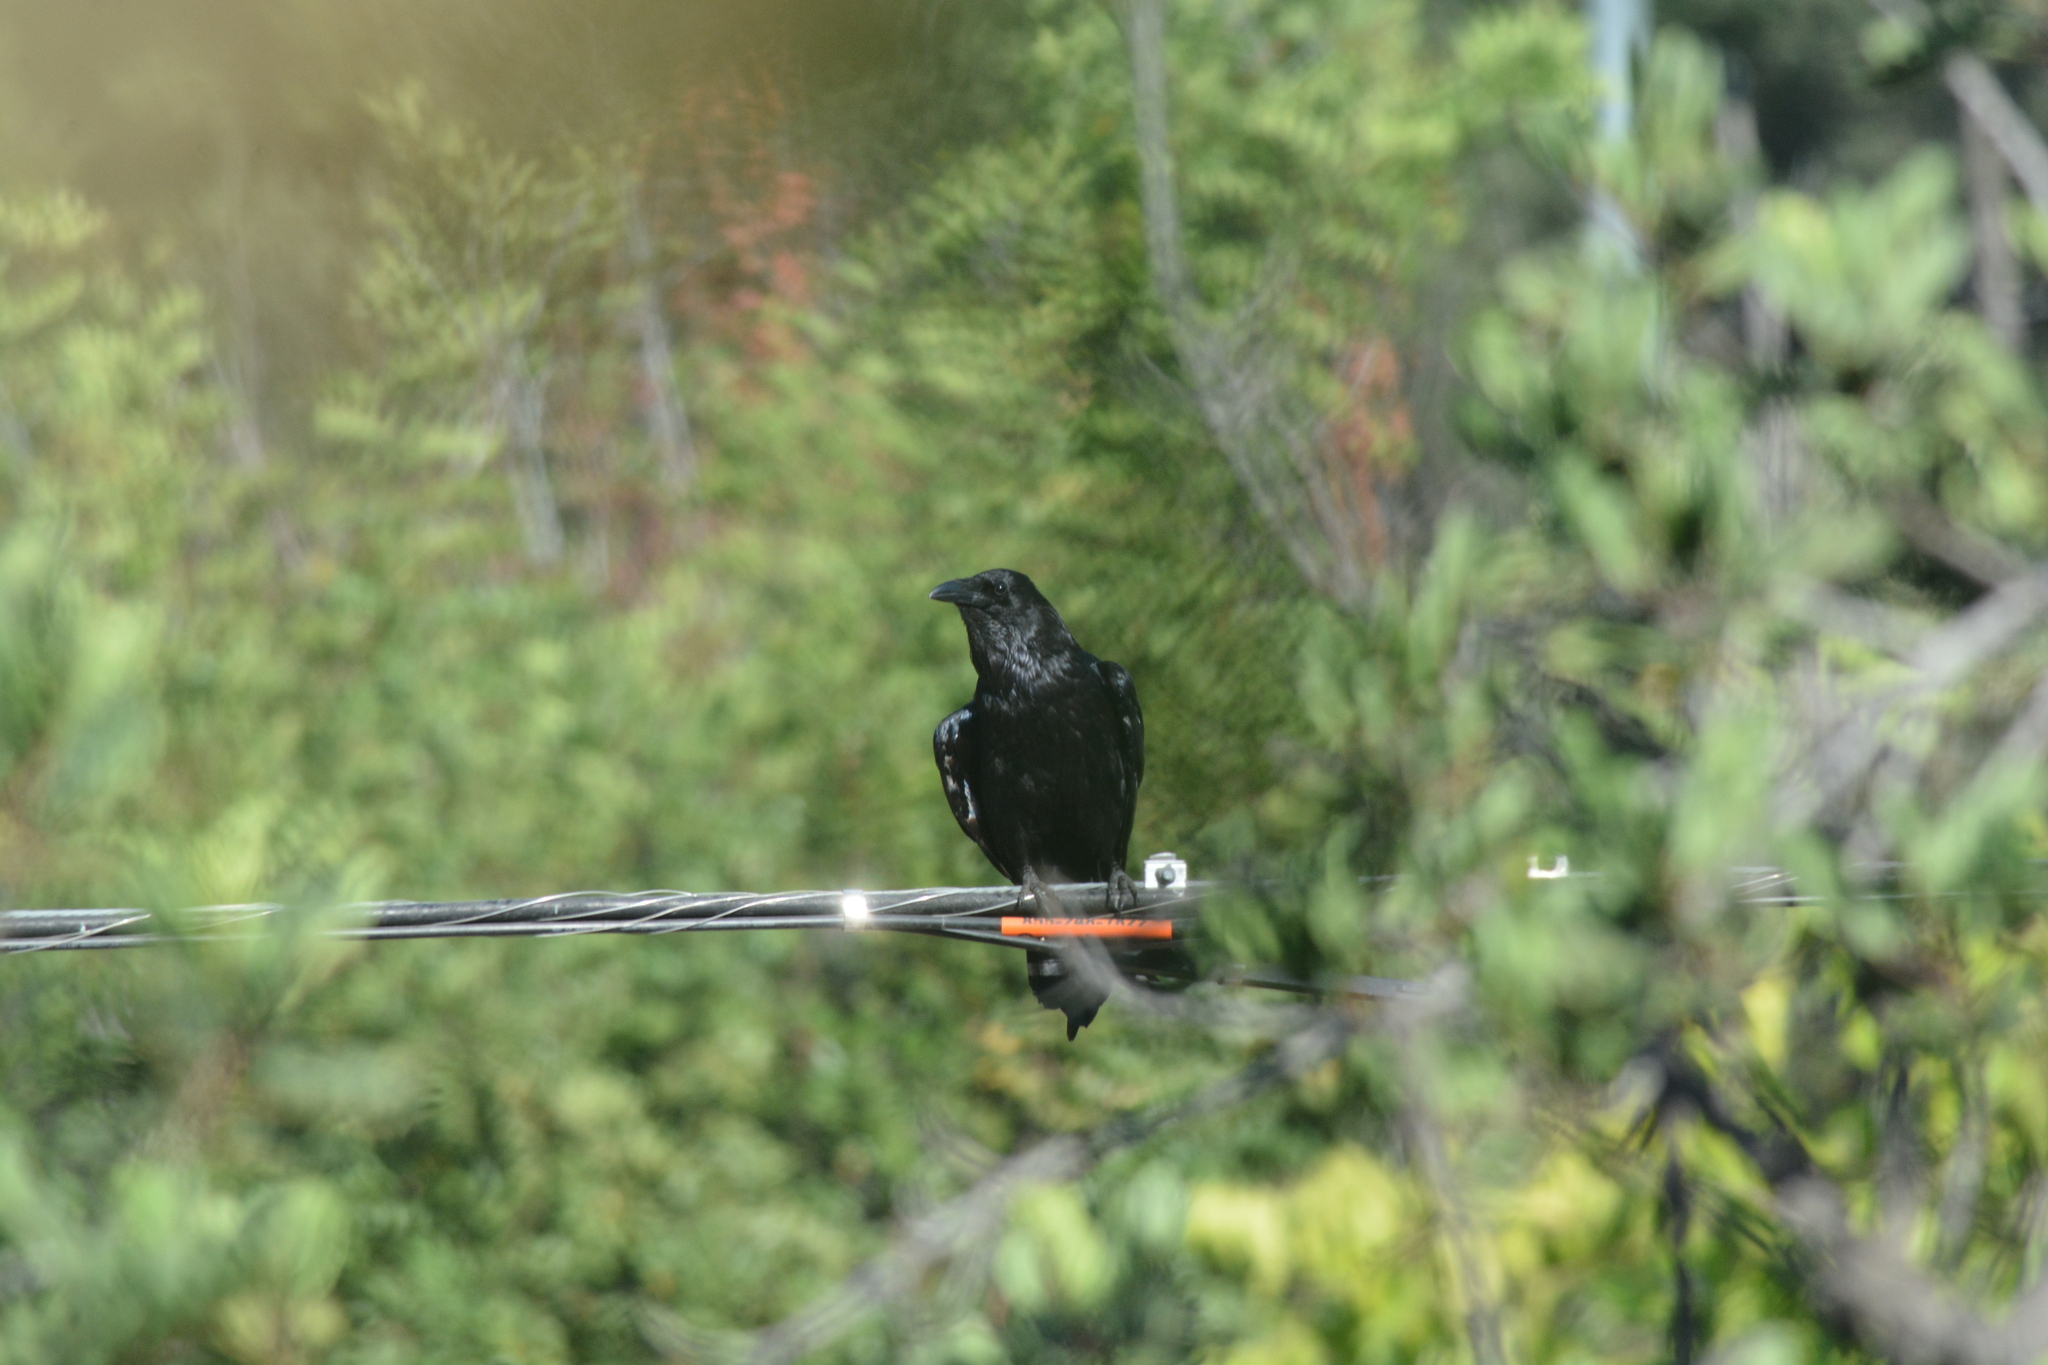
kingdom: Animalia
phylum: Chordata
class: Aves
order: Passeriformes
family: Corvidae
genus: Corvus
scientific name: Corvus corax
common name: Common raven
